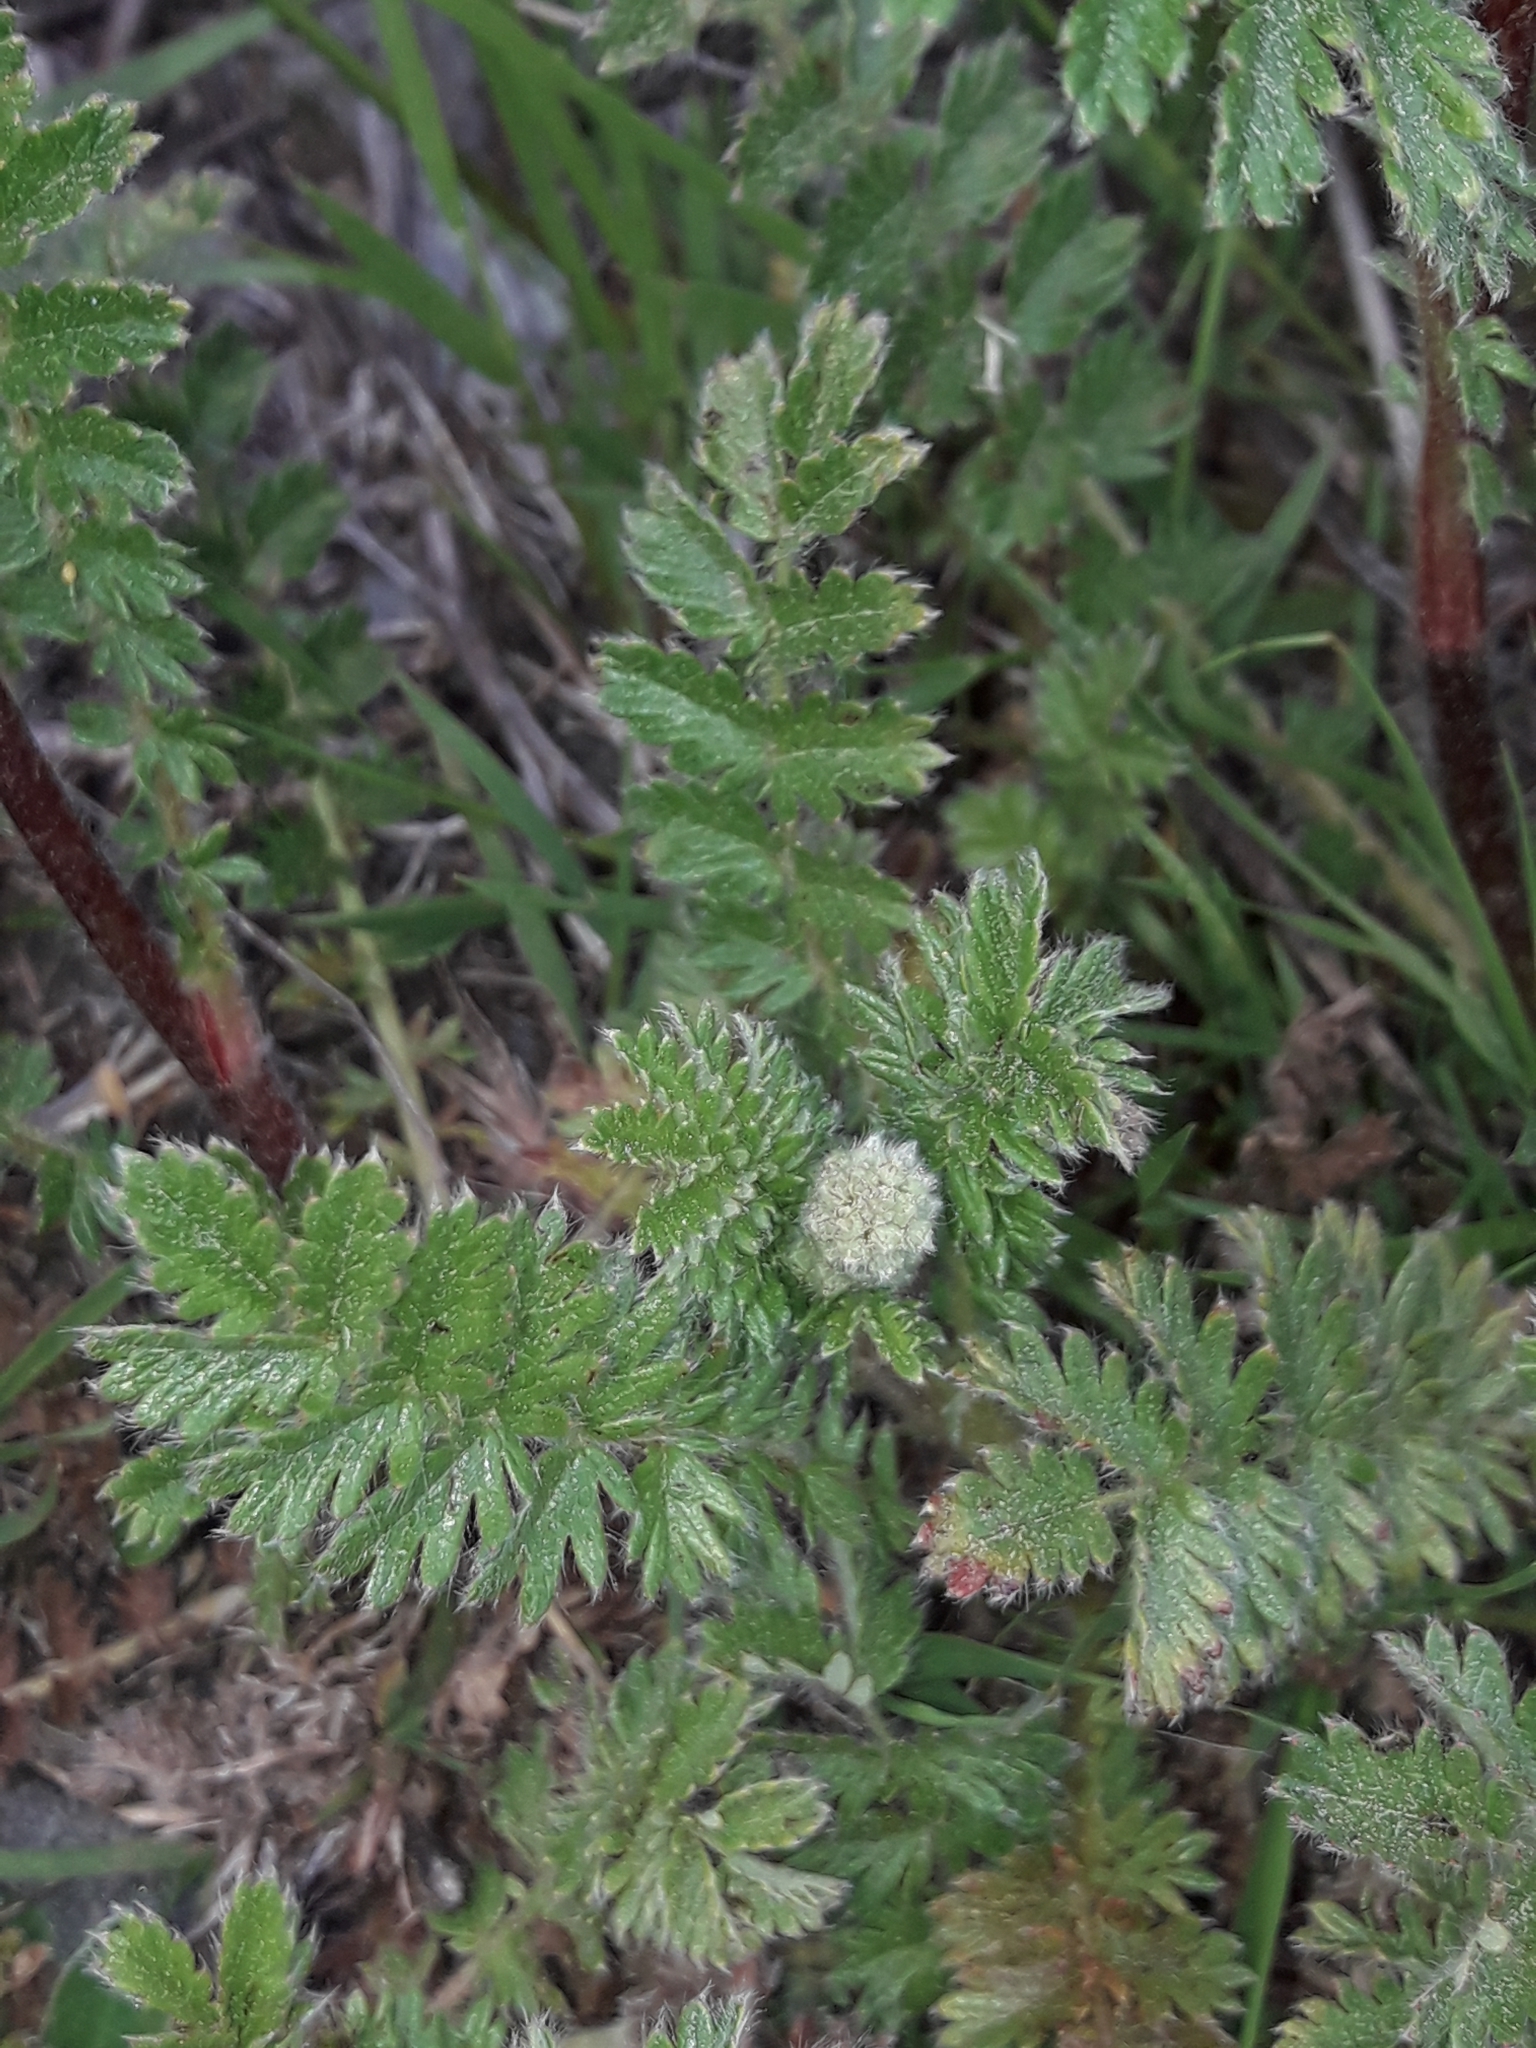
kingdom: Plantae
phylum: Tracheophyta
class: Magnoliopsida
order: Rosales
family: Rosaceae
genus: Acaena
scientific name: Acaena agnipila
